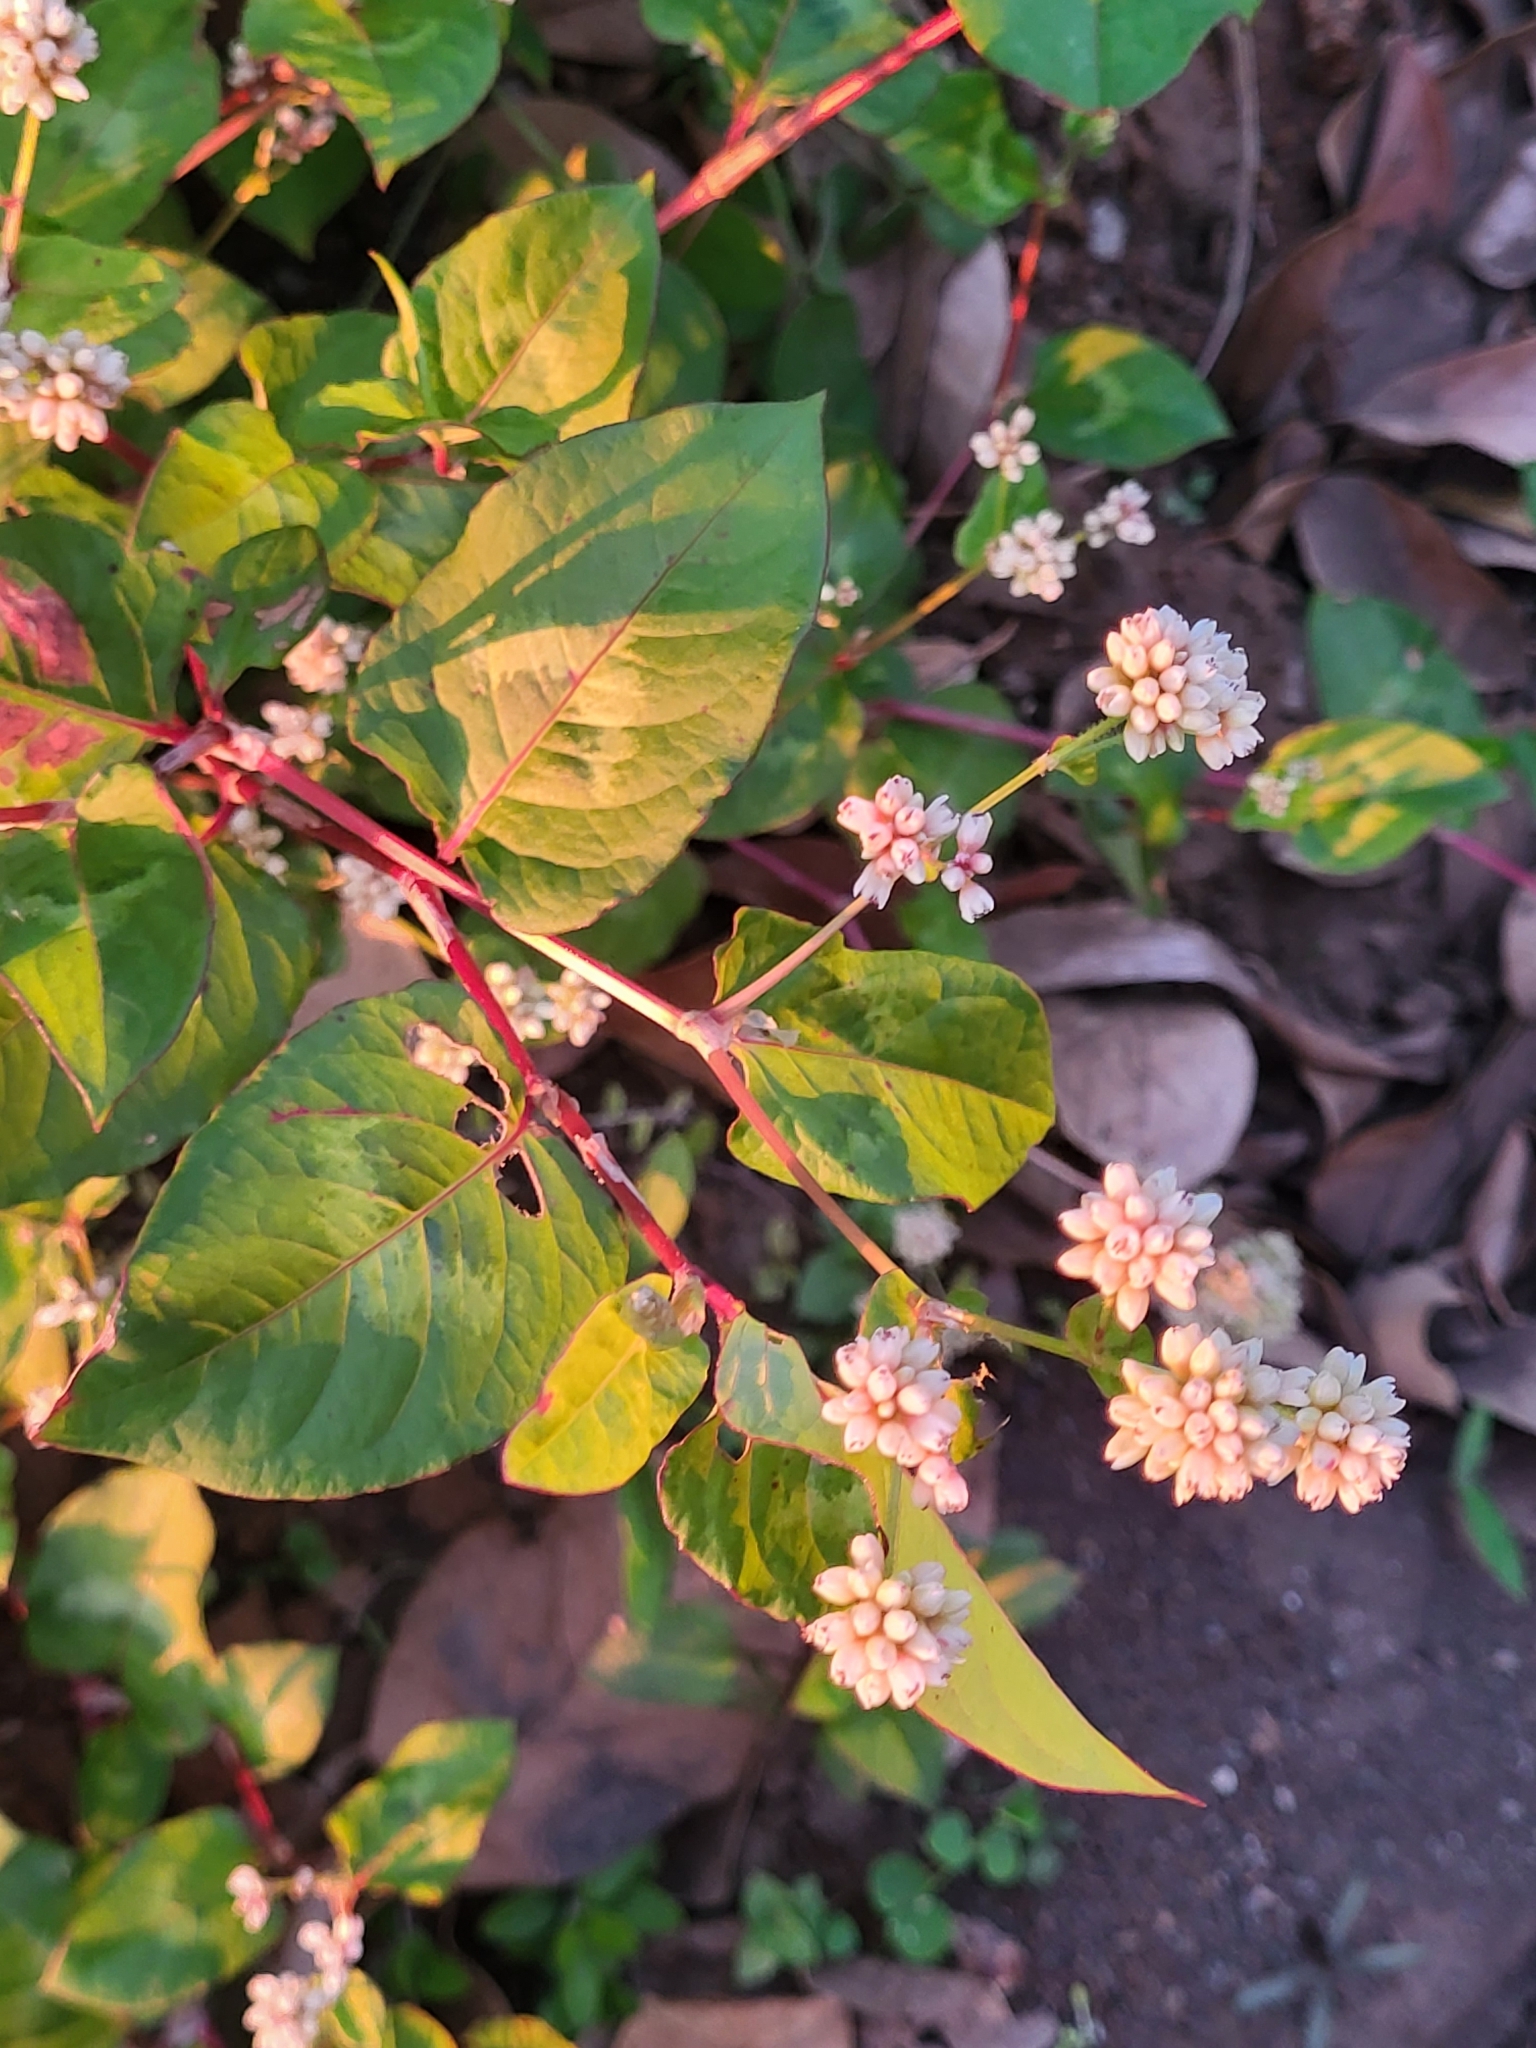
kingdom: Plantae
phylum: Tracheophyta
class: Magnoliopsida
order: Caryophyllales
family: Polygonaceae
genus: Persicaria
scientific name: Persicaria capitata
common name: Pinkhead smartweed
